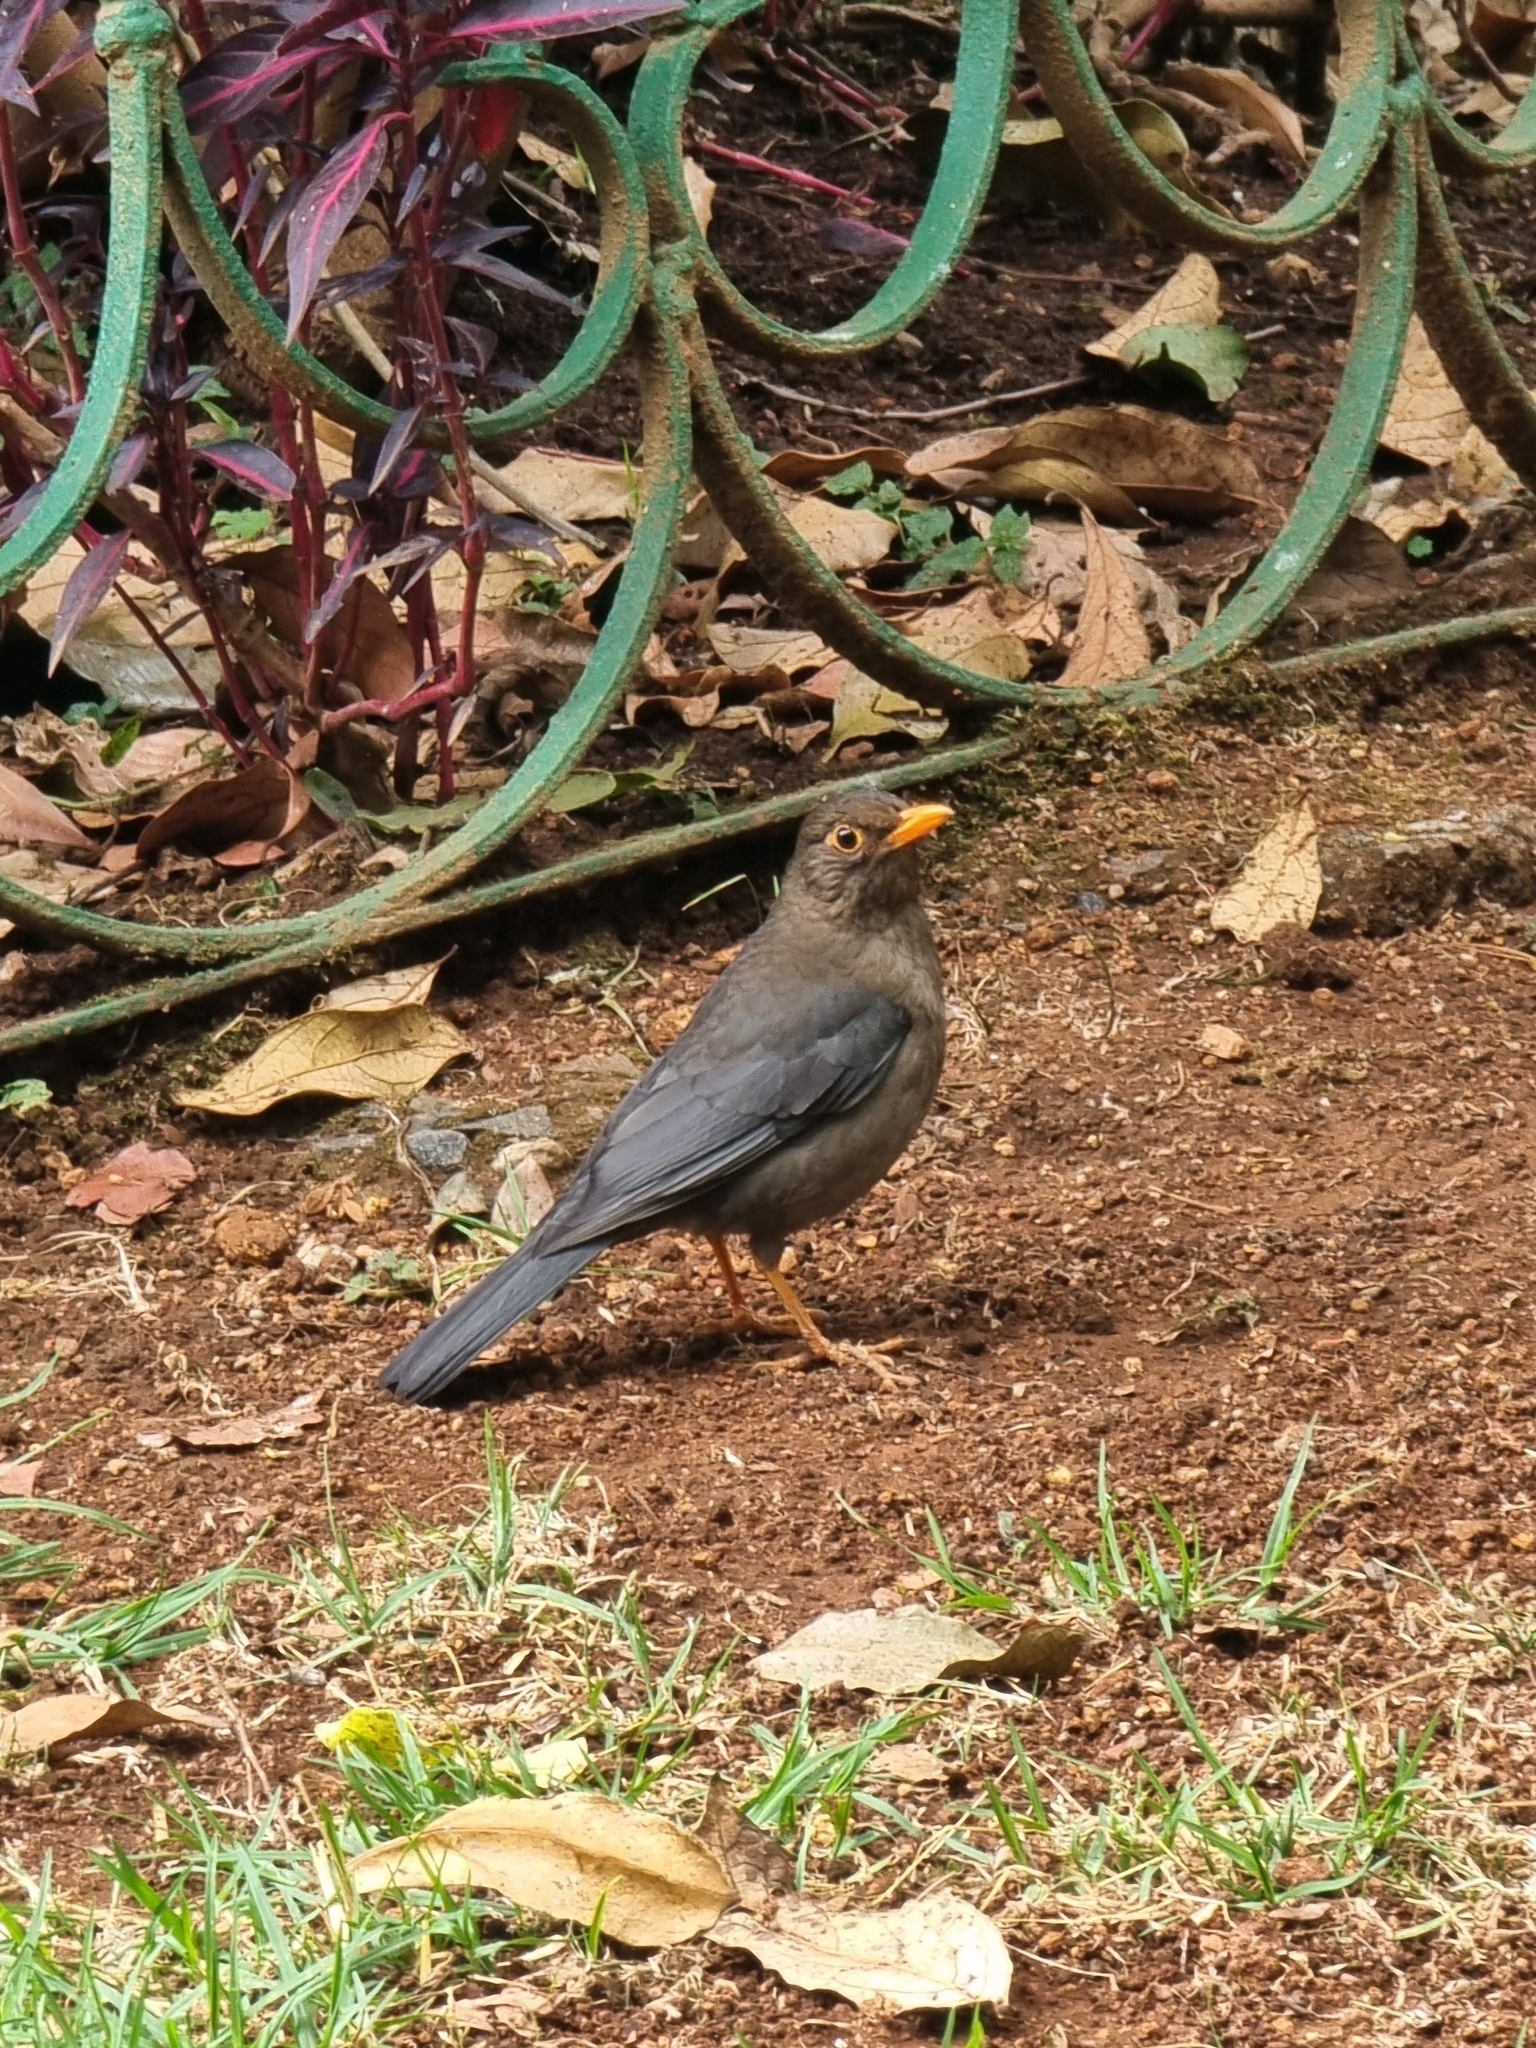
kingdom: Animalia
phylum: Chordata
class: Aves
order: Passeriformes
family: Turdidae
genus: Turdus
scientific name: Turdus simillimus
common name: Indian blackbird
